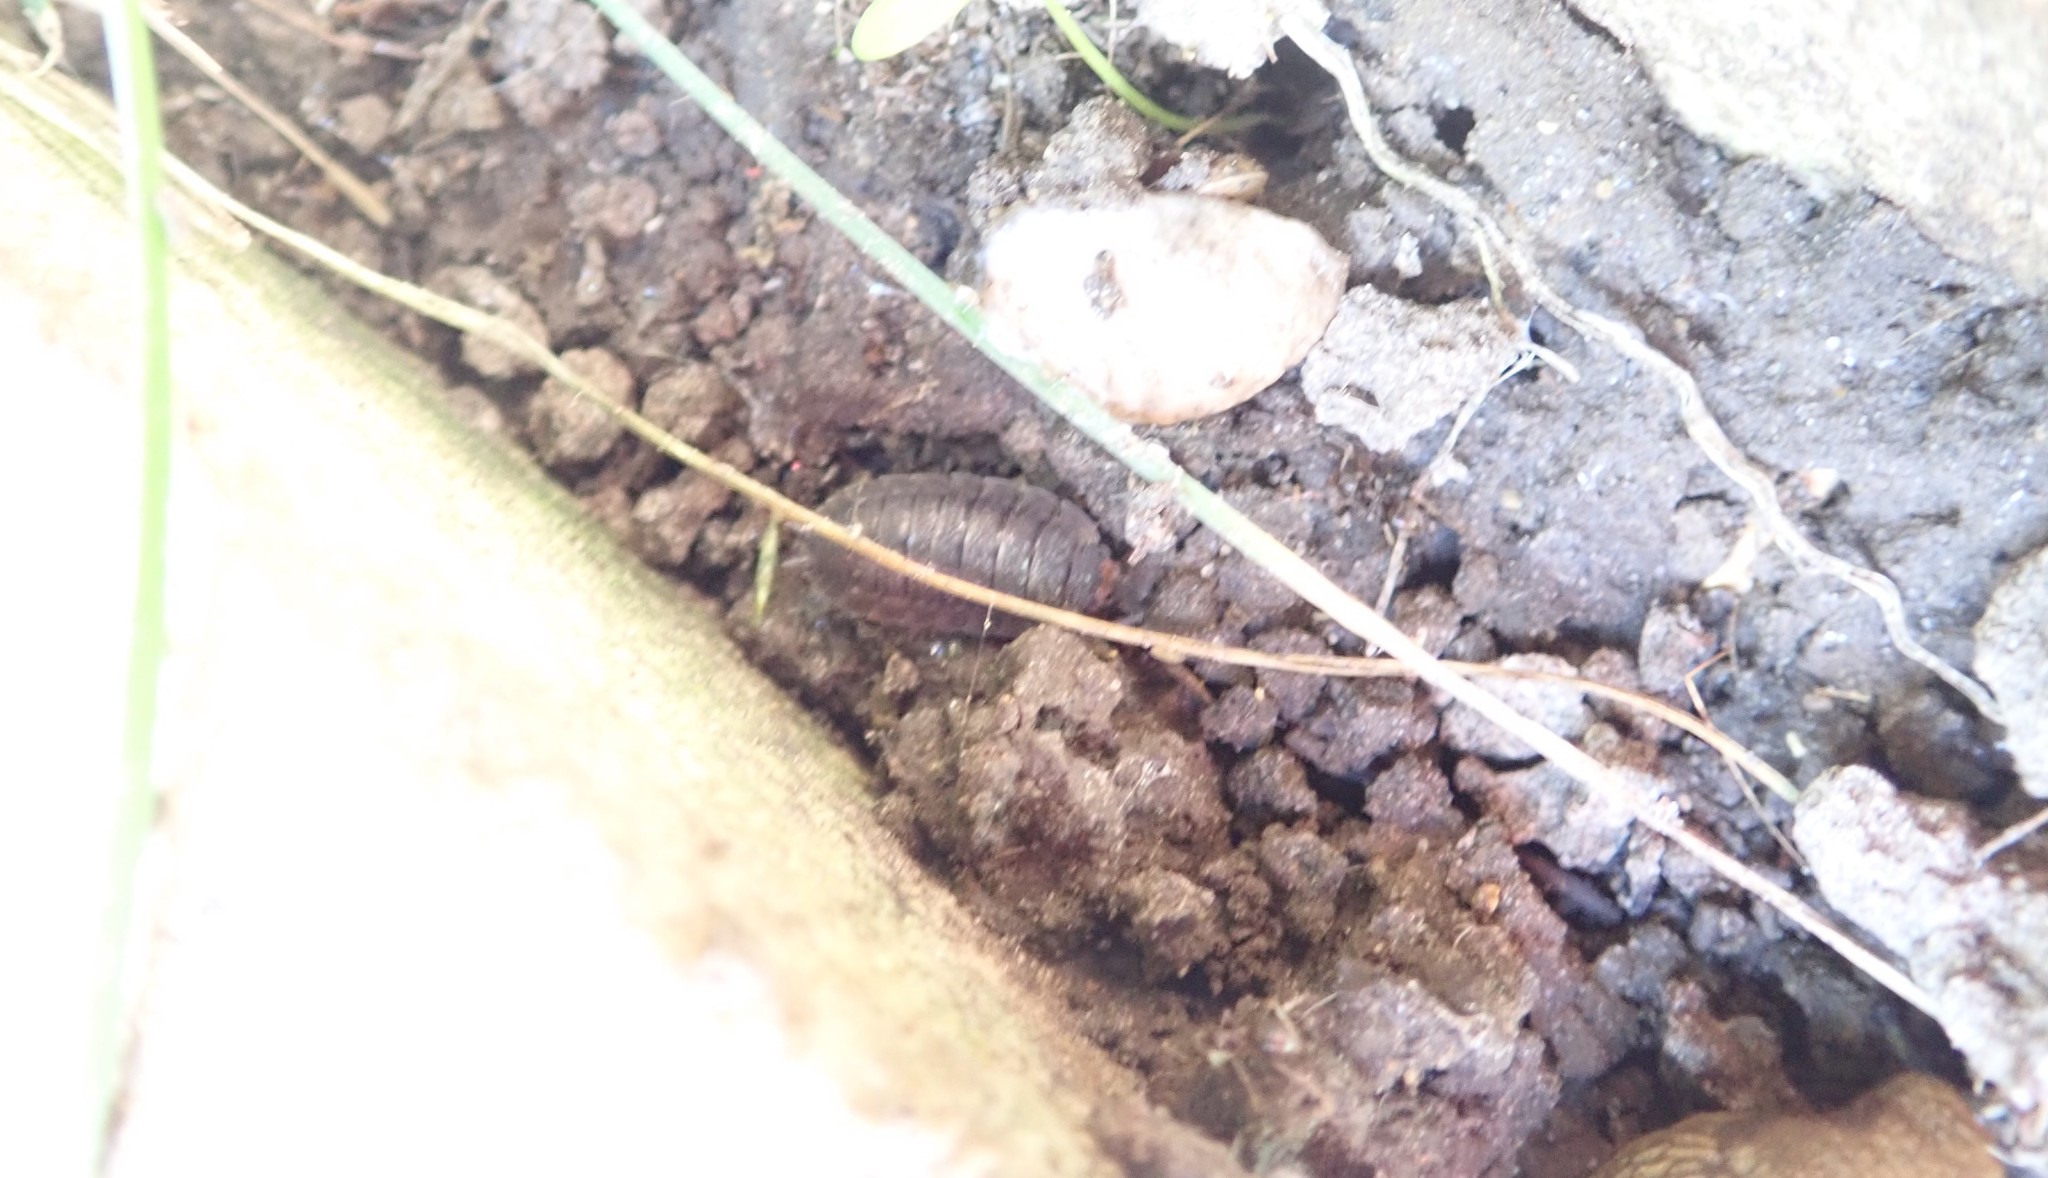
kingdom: Animalia
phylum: Arthropoda
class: Malacostraca
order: Isopoda
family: Porcellionidae
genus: Porcellio
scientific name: Porcellio scaber
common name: Common rough woodlouse
